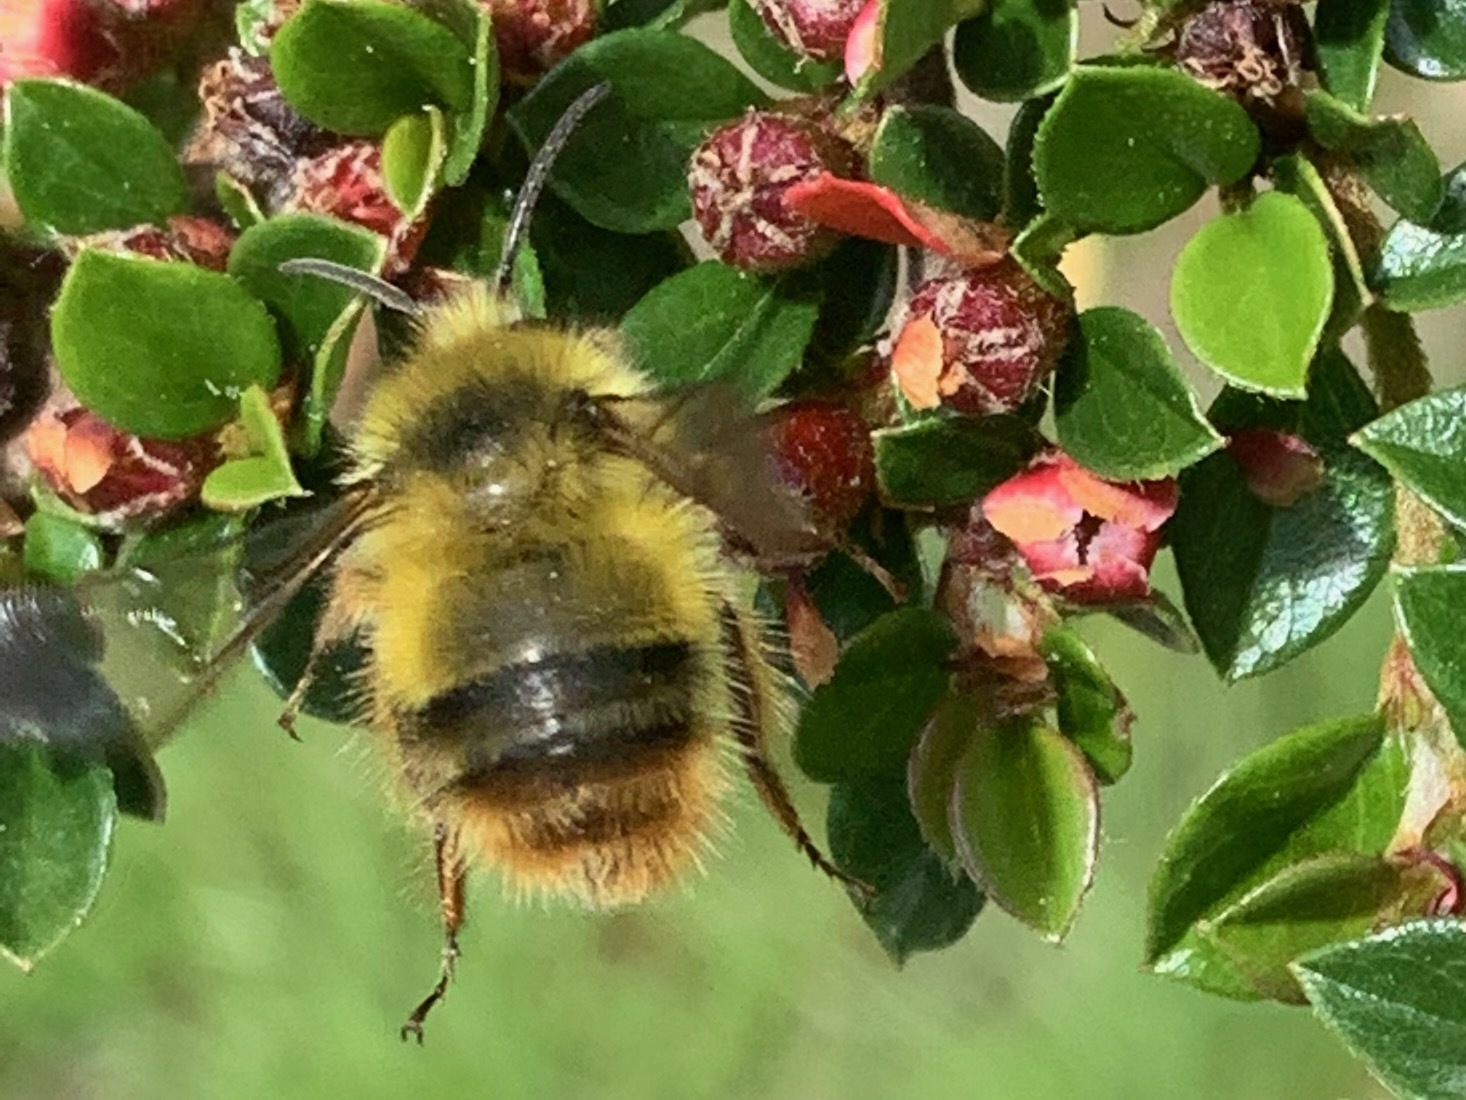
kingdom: Animalia
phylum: Arthropoda
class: Insecta
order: Hymenoptera
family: Apidae
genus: Bombus
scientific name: Bombus mixtus
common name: Fuzzy-horned bumble bee
